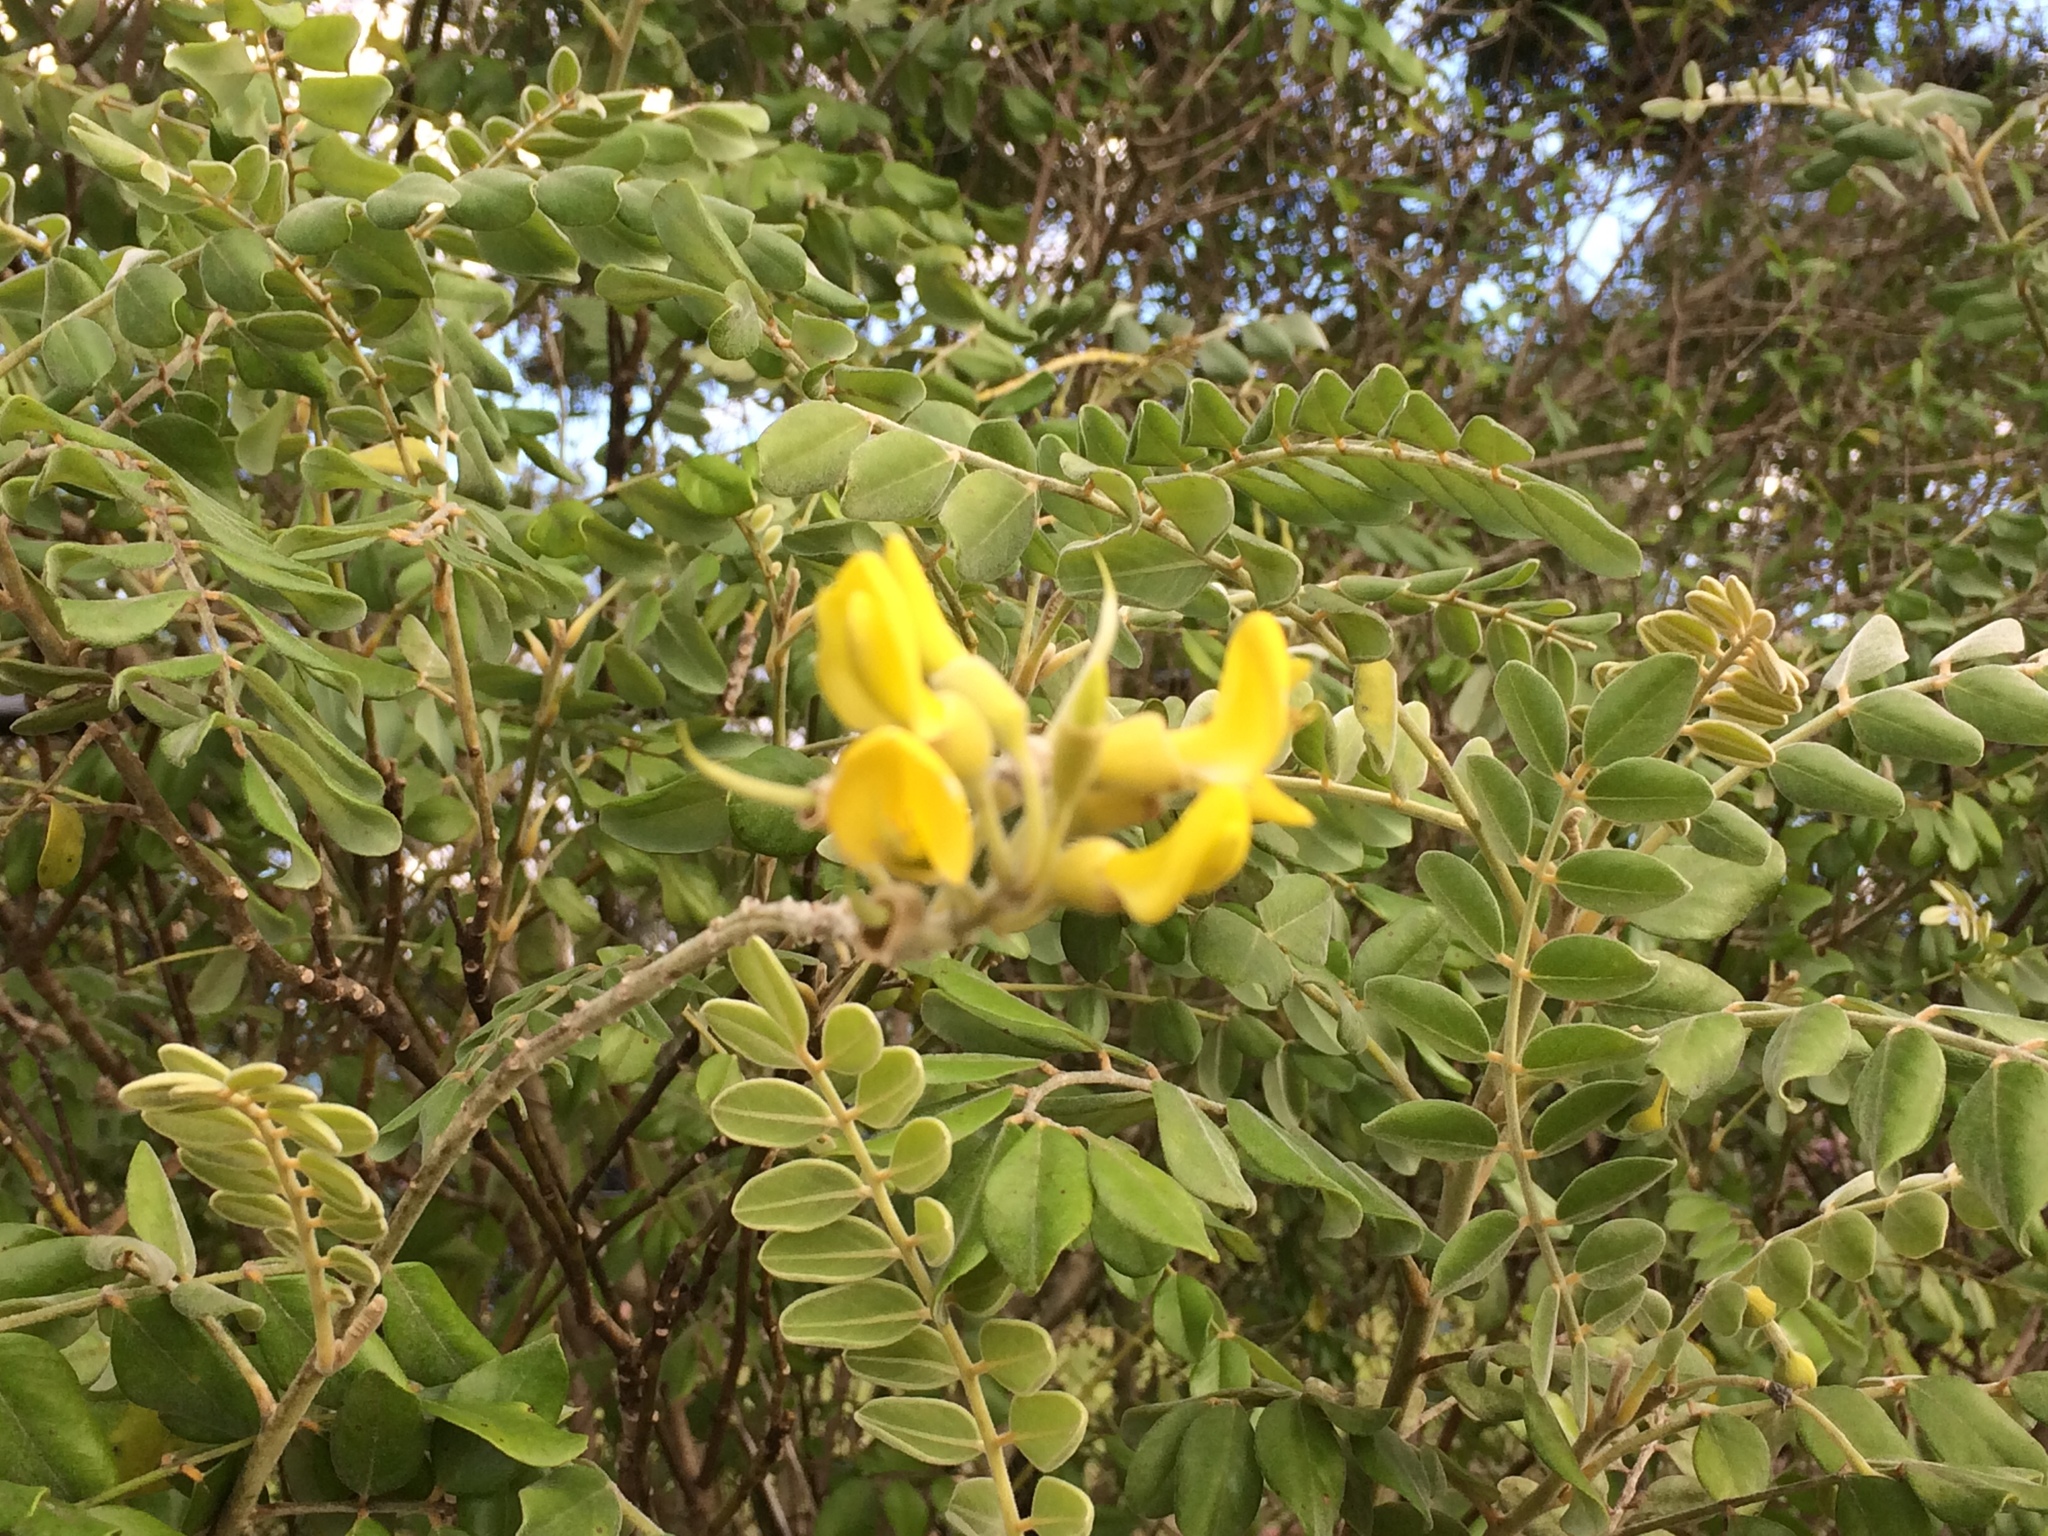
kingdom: Plantae
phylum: Tracheophyta
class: Magnoliopsida
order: Fabales
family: Fabaceae
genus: Sophora
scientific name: Sophora tomentosa
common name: Yellow necklacepod
